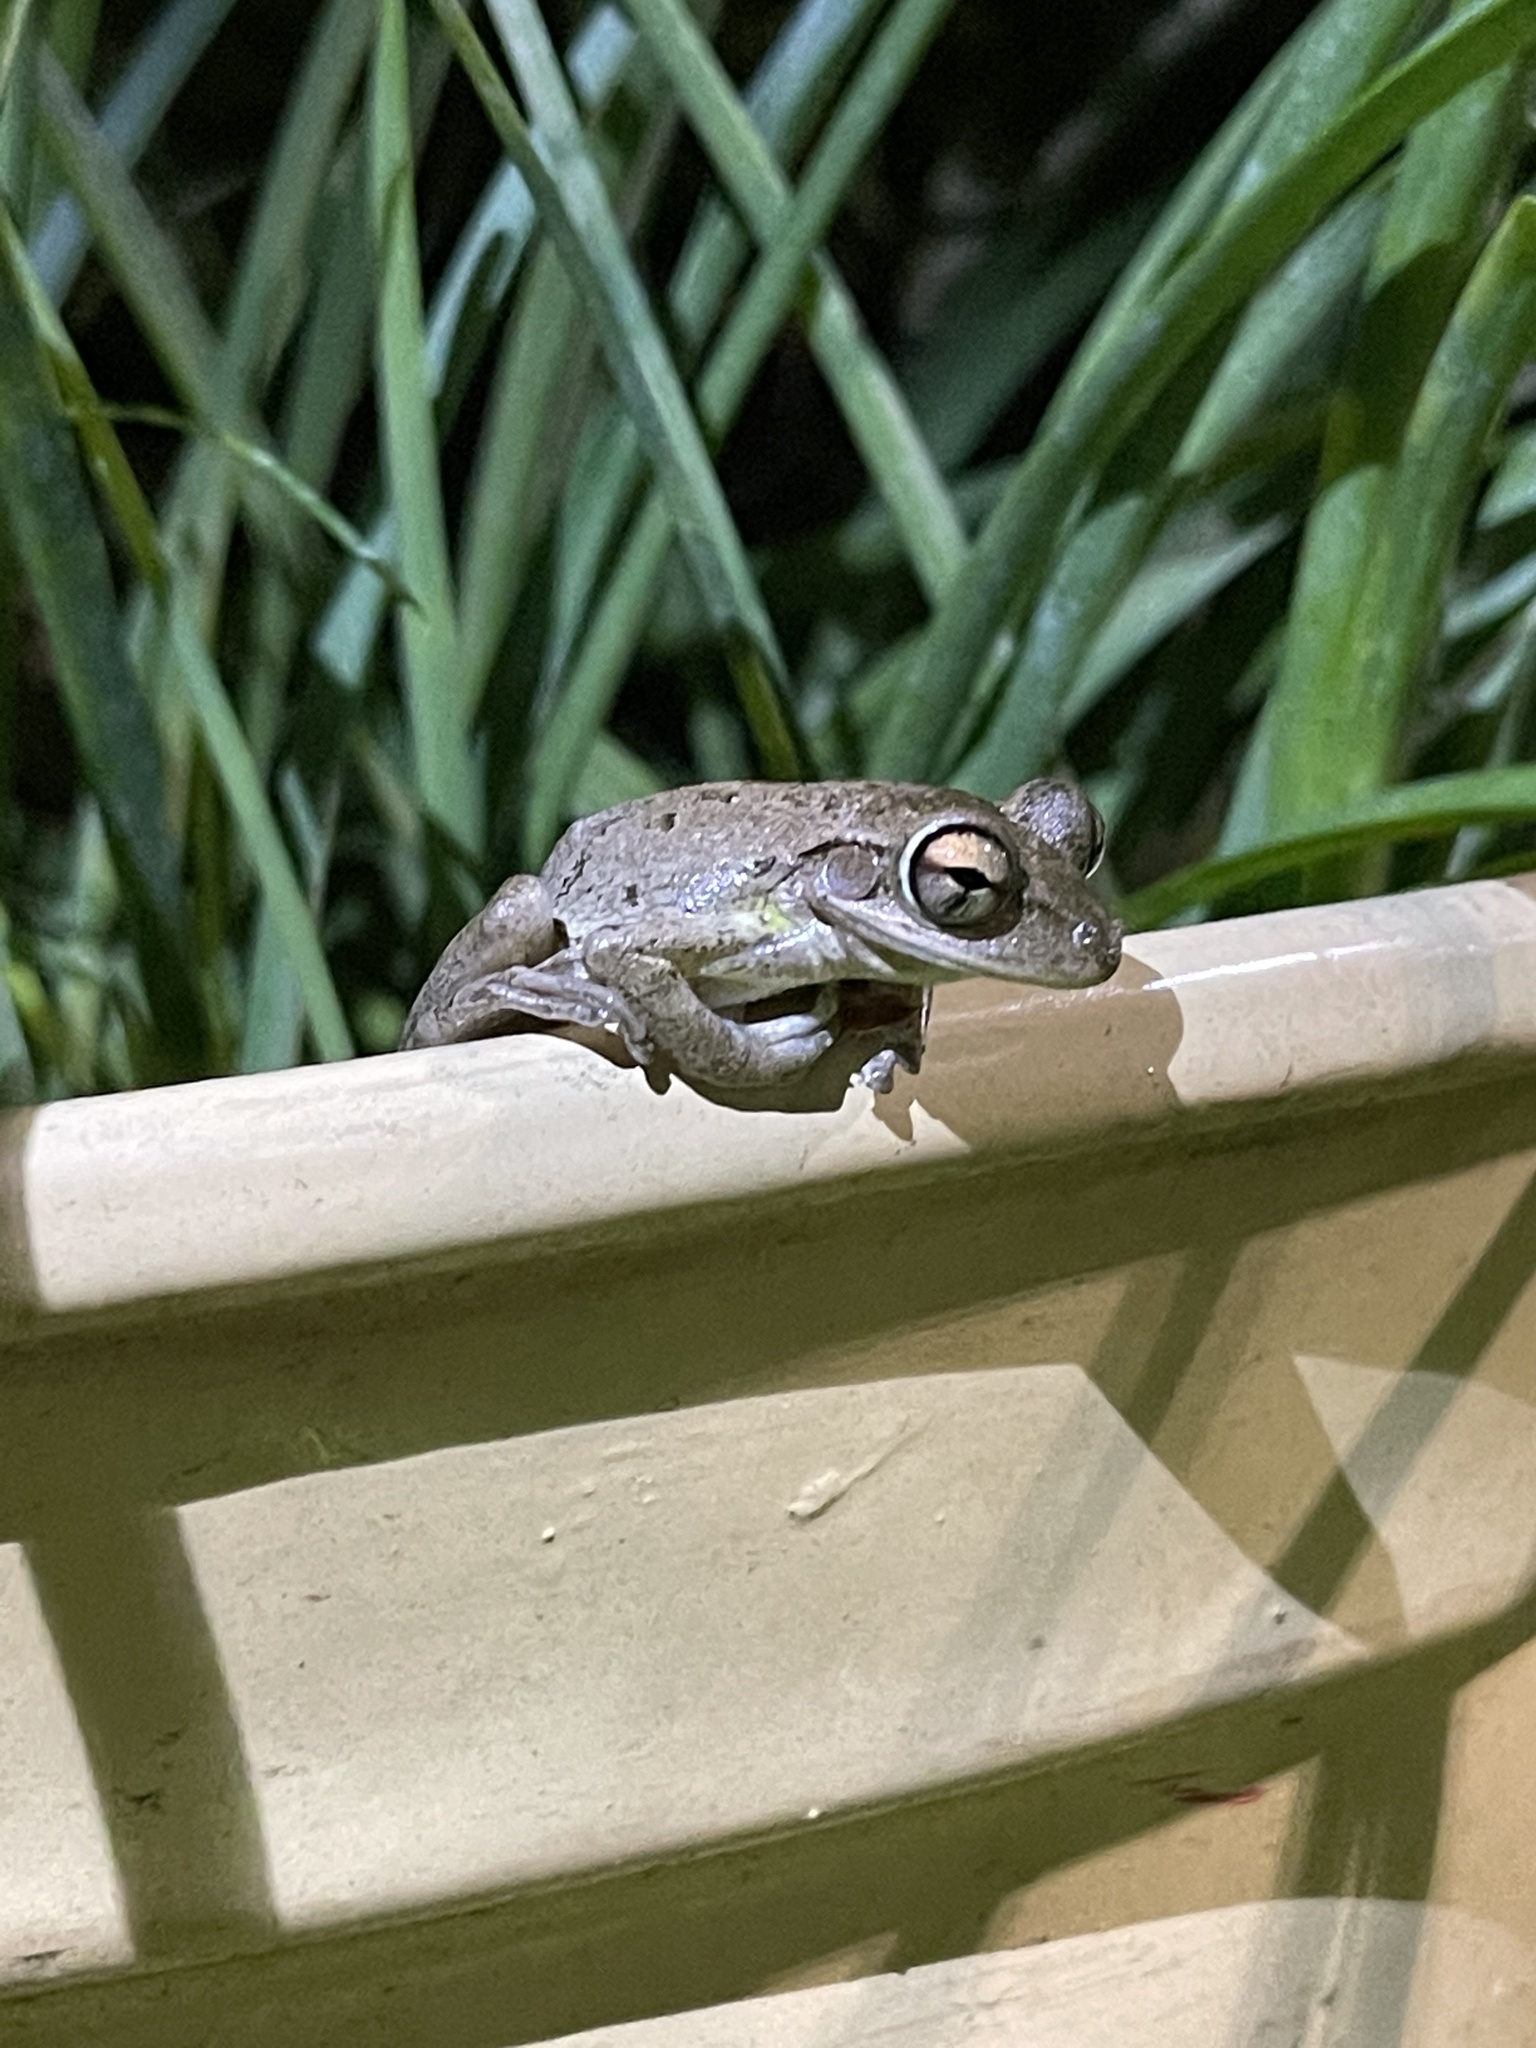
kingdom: Animalia
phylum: Chordata
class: Amphibia
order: Anura
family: Hylidae
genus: Osteopilus
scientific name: Osteopilus septentrionalis
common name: Cuban treefrog
